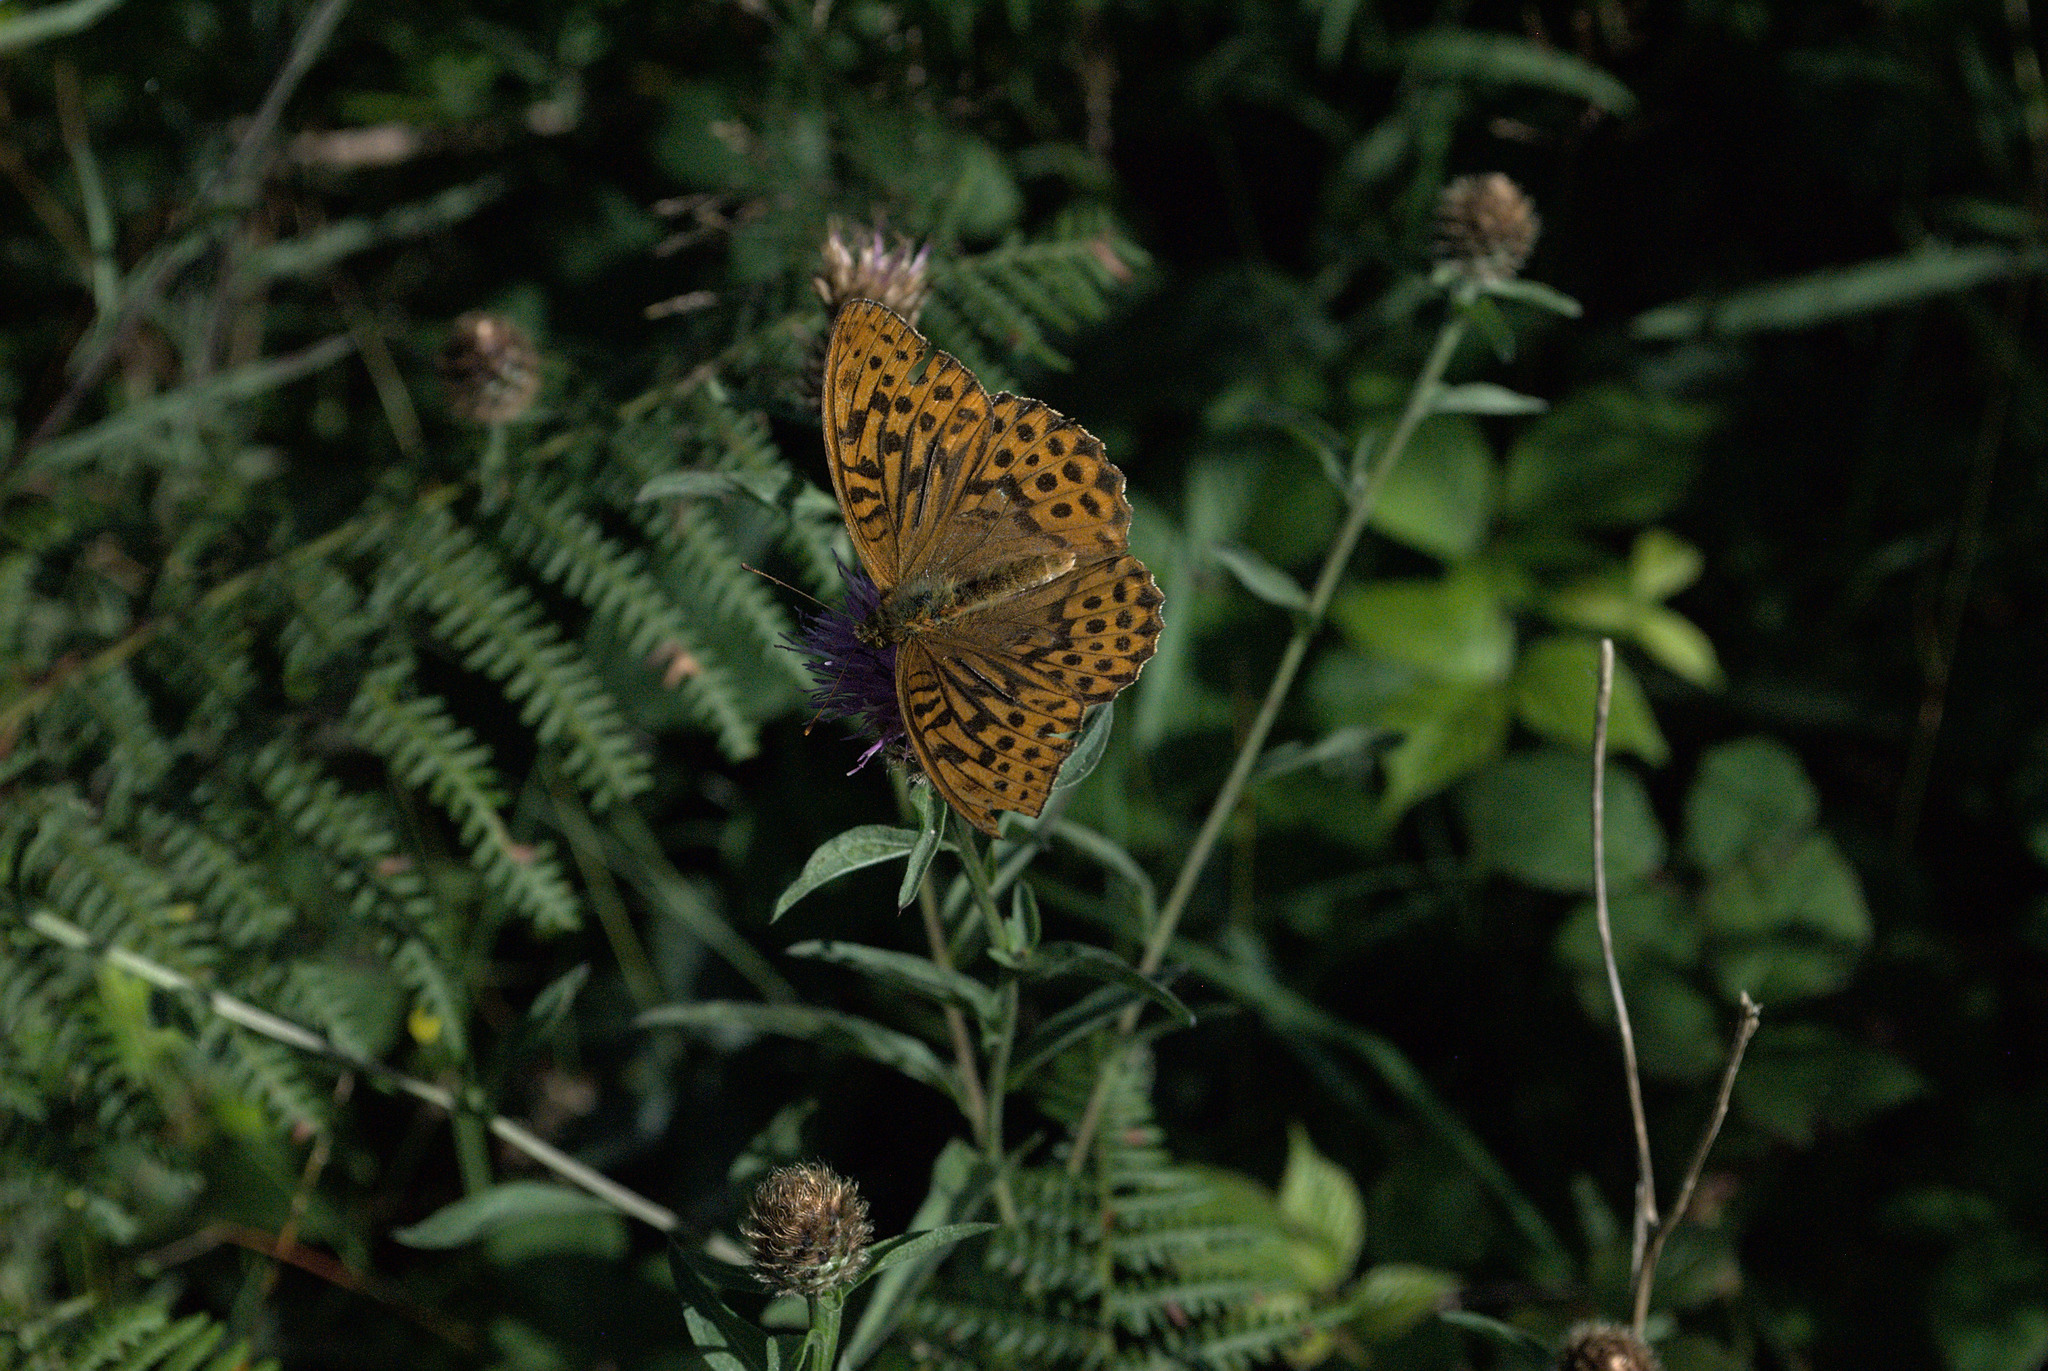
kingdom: Animalia
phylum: Arthropoda
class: Insecta
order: Lepidoptera
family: Nymphalidae
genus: Argynnis
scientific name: Argynnis paphia
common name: Silver-washed fritillary
